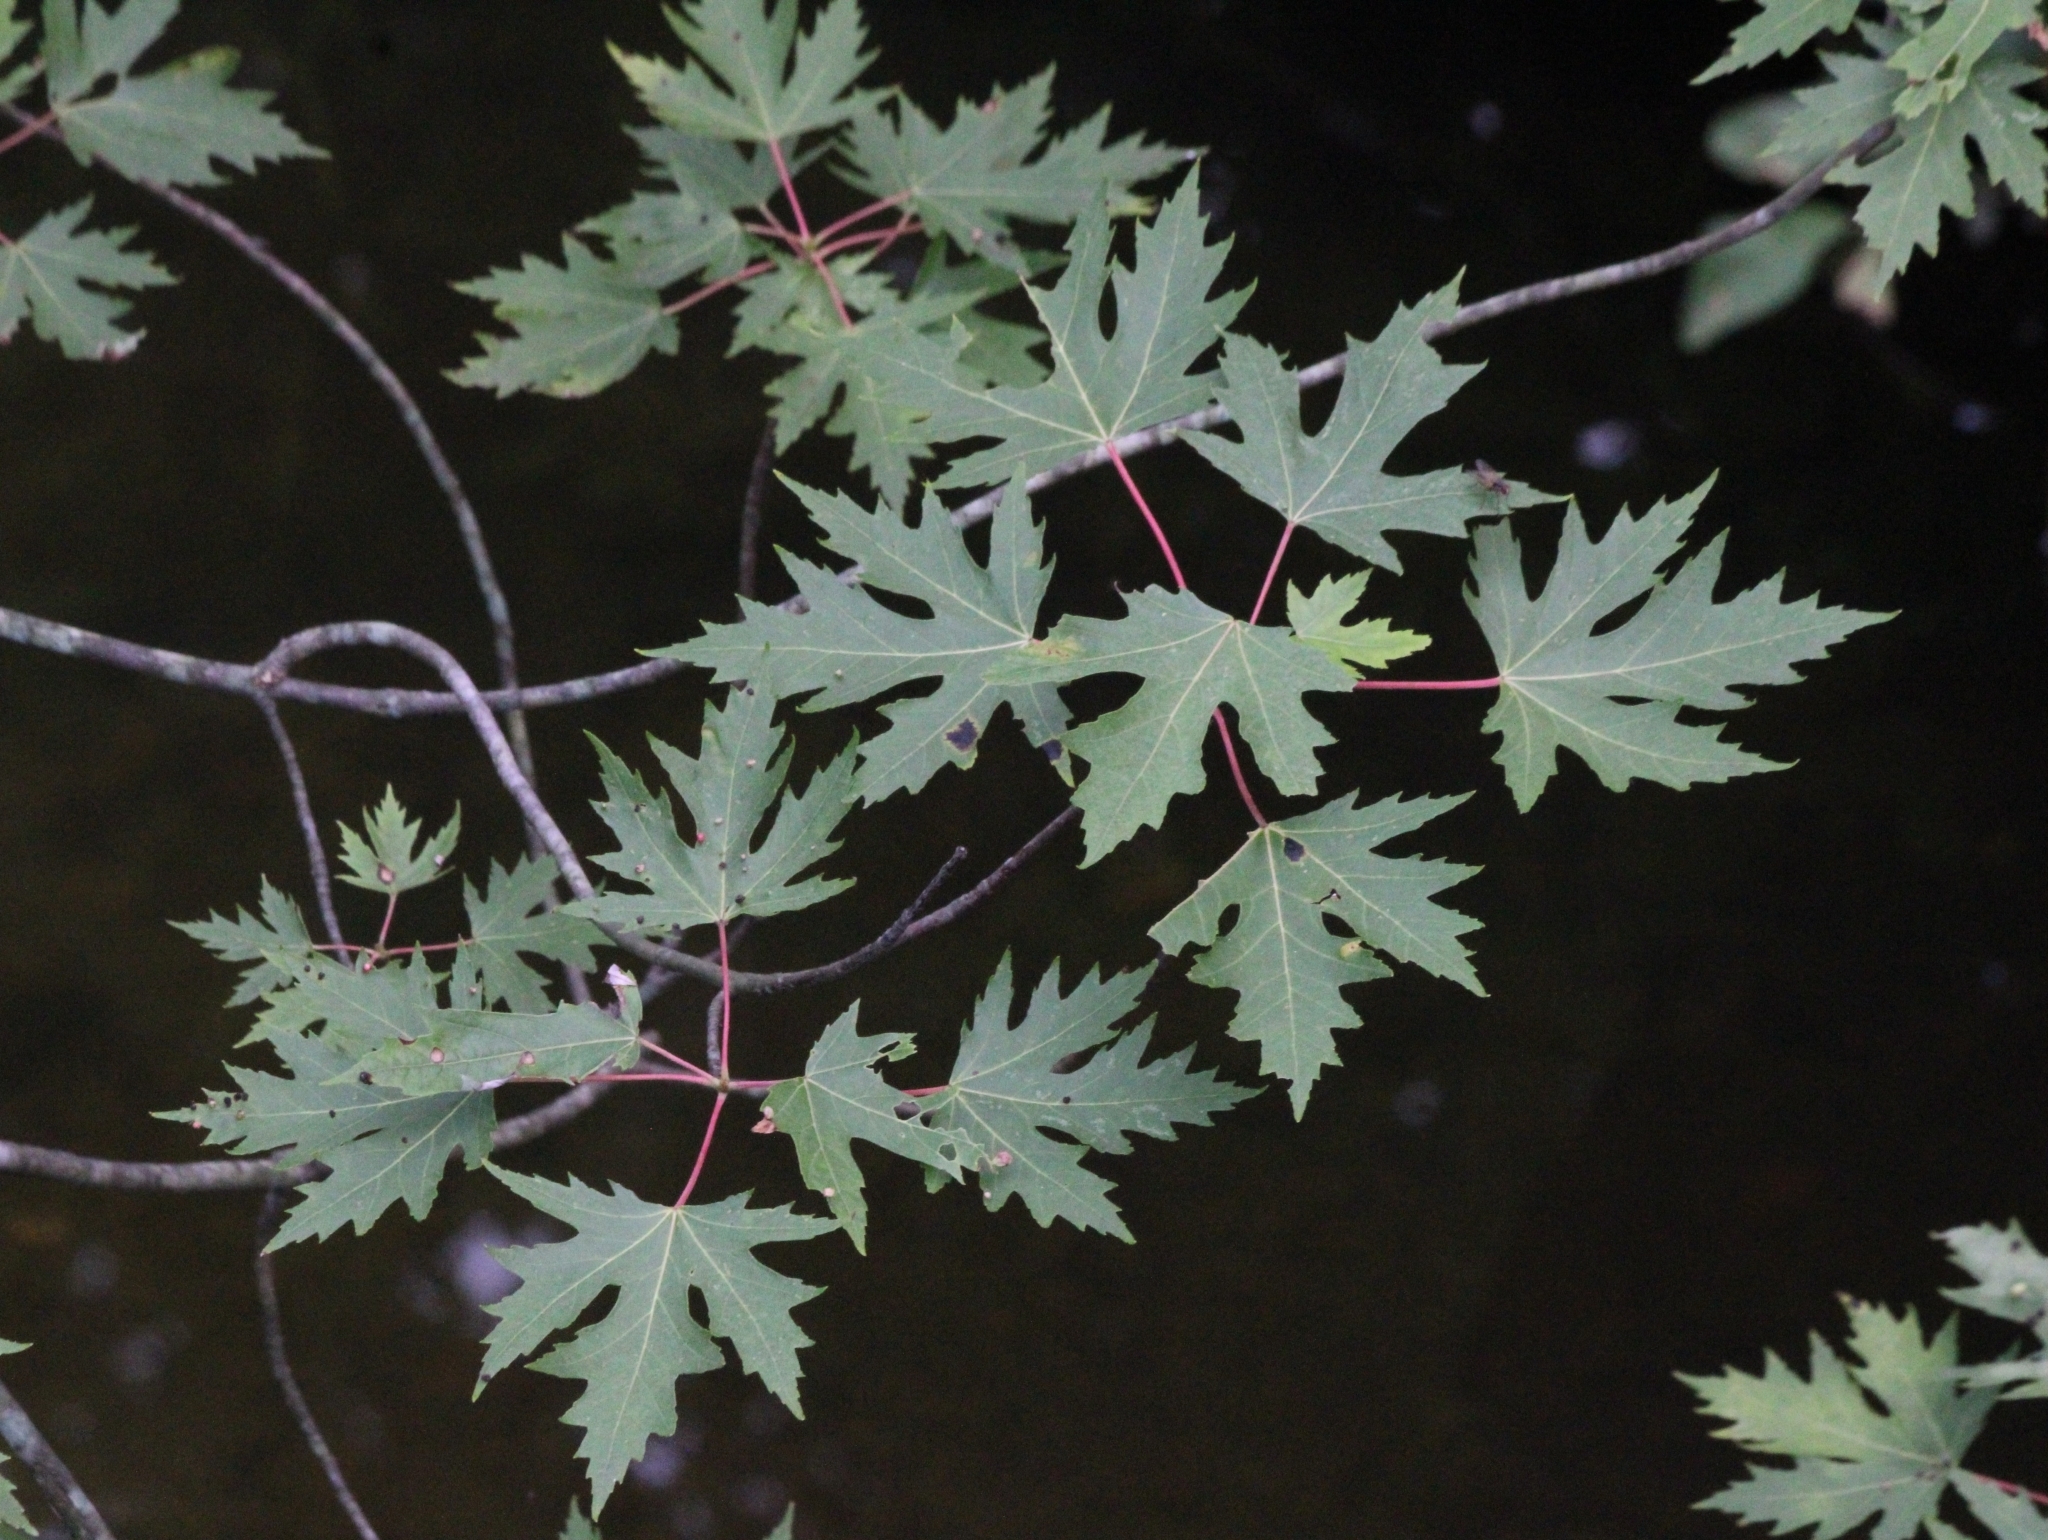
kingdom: Plantae
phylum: Tracheophyta
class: Magnoliopsida
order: Sapindales
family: Sapindaceae
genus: Acer
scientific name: Acer saccharinum
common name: Silver maple
